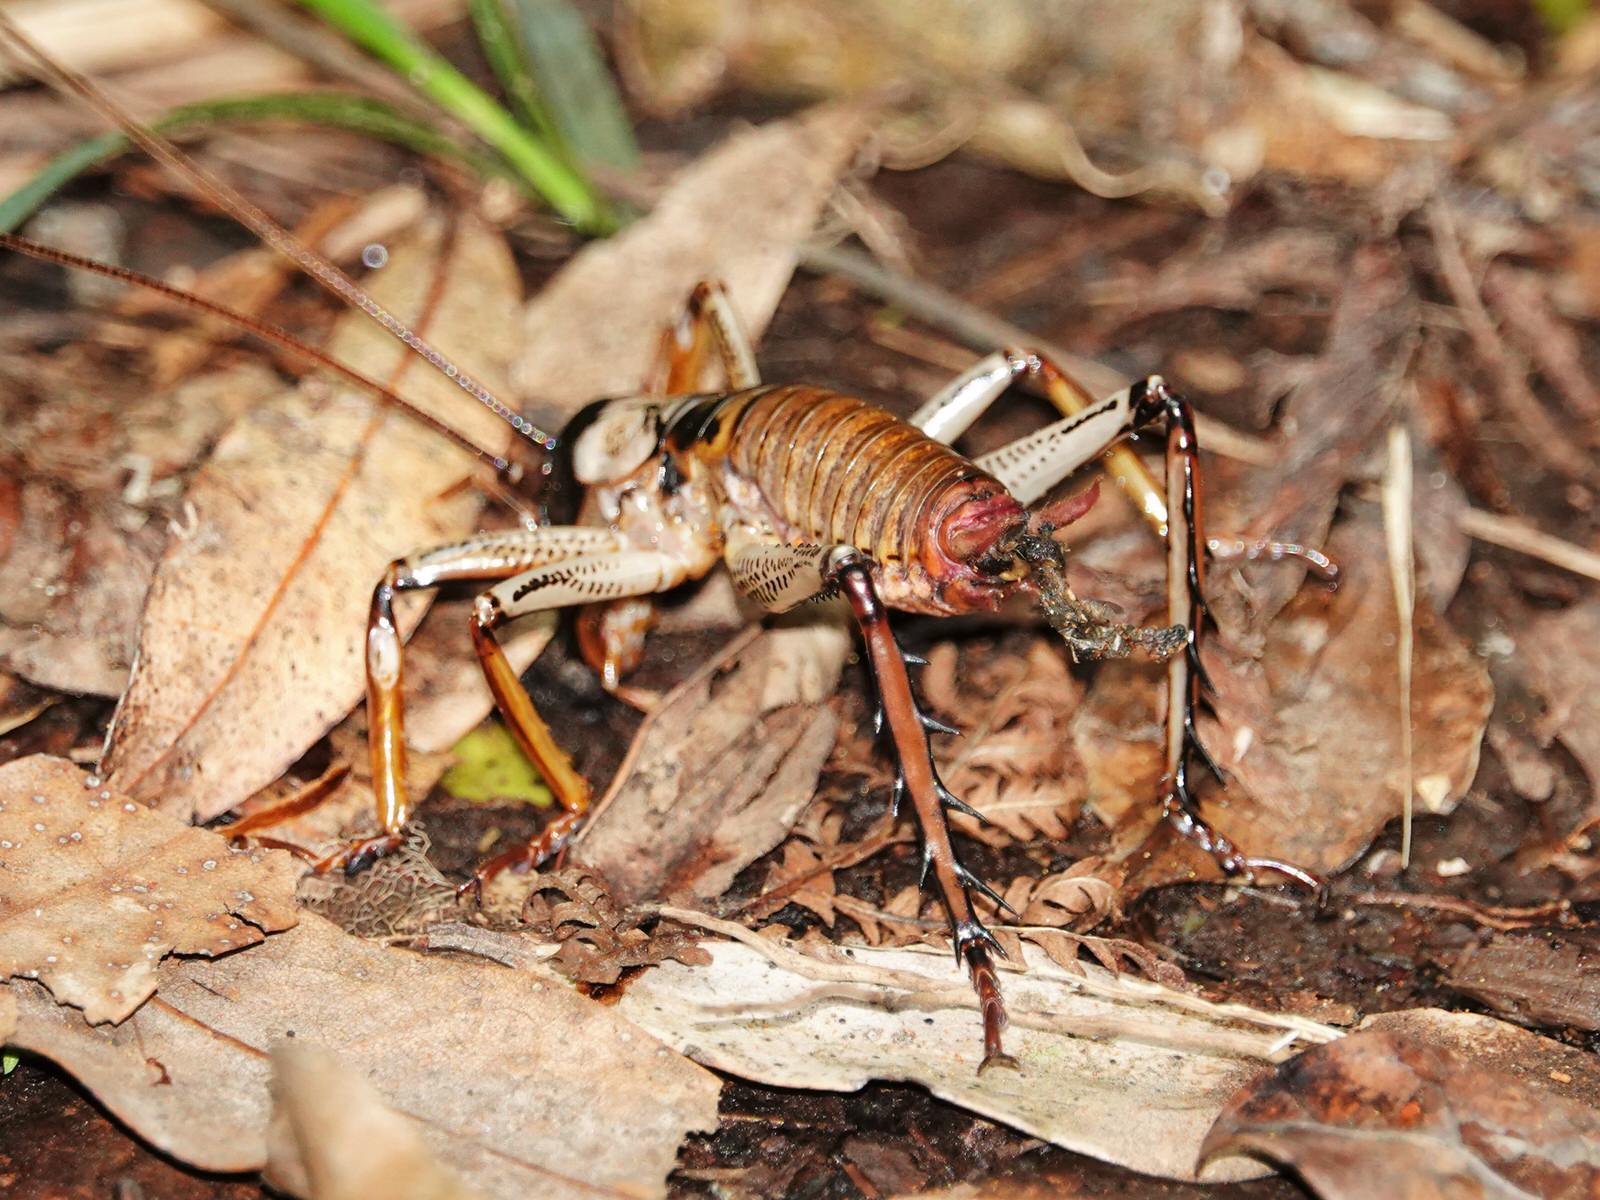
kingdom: Animalia
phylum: Arthropoda
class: Insecta
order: Orthoptera
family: Anostostomatidae
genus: Hemideina
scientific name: Hemideina thoracica
